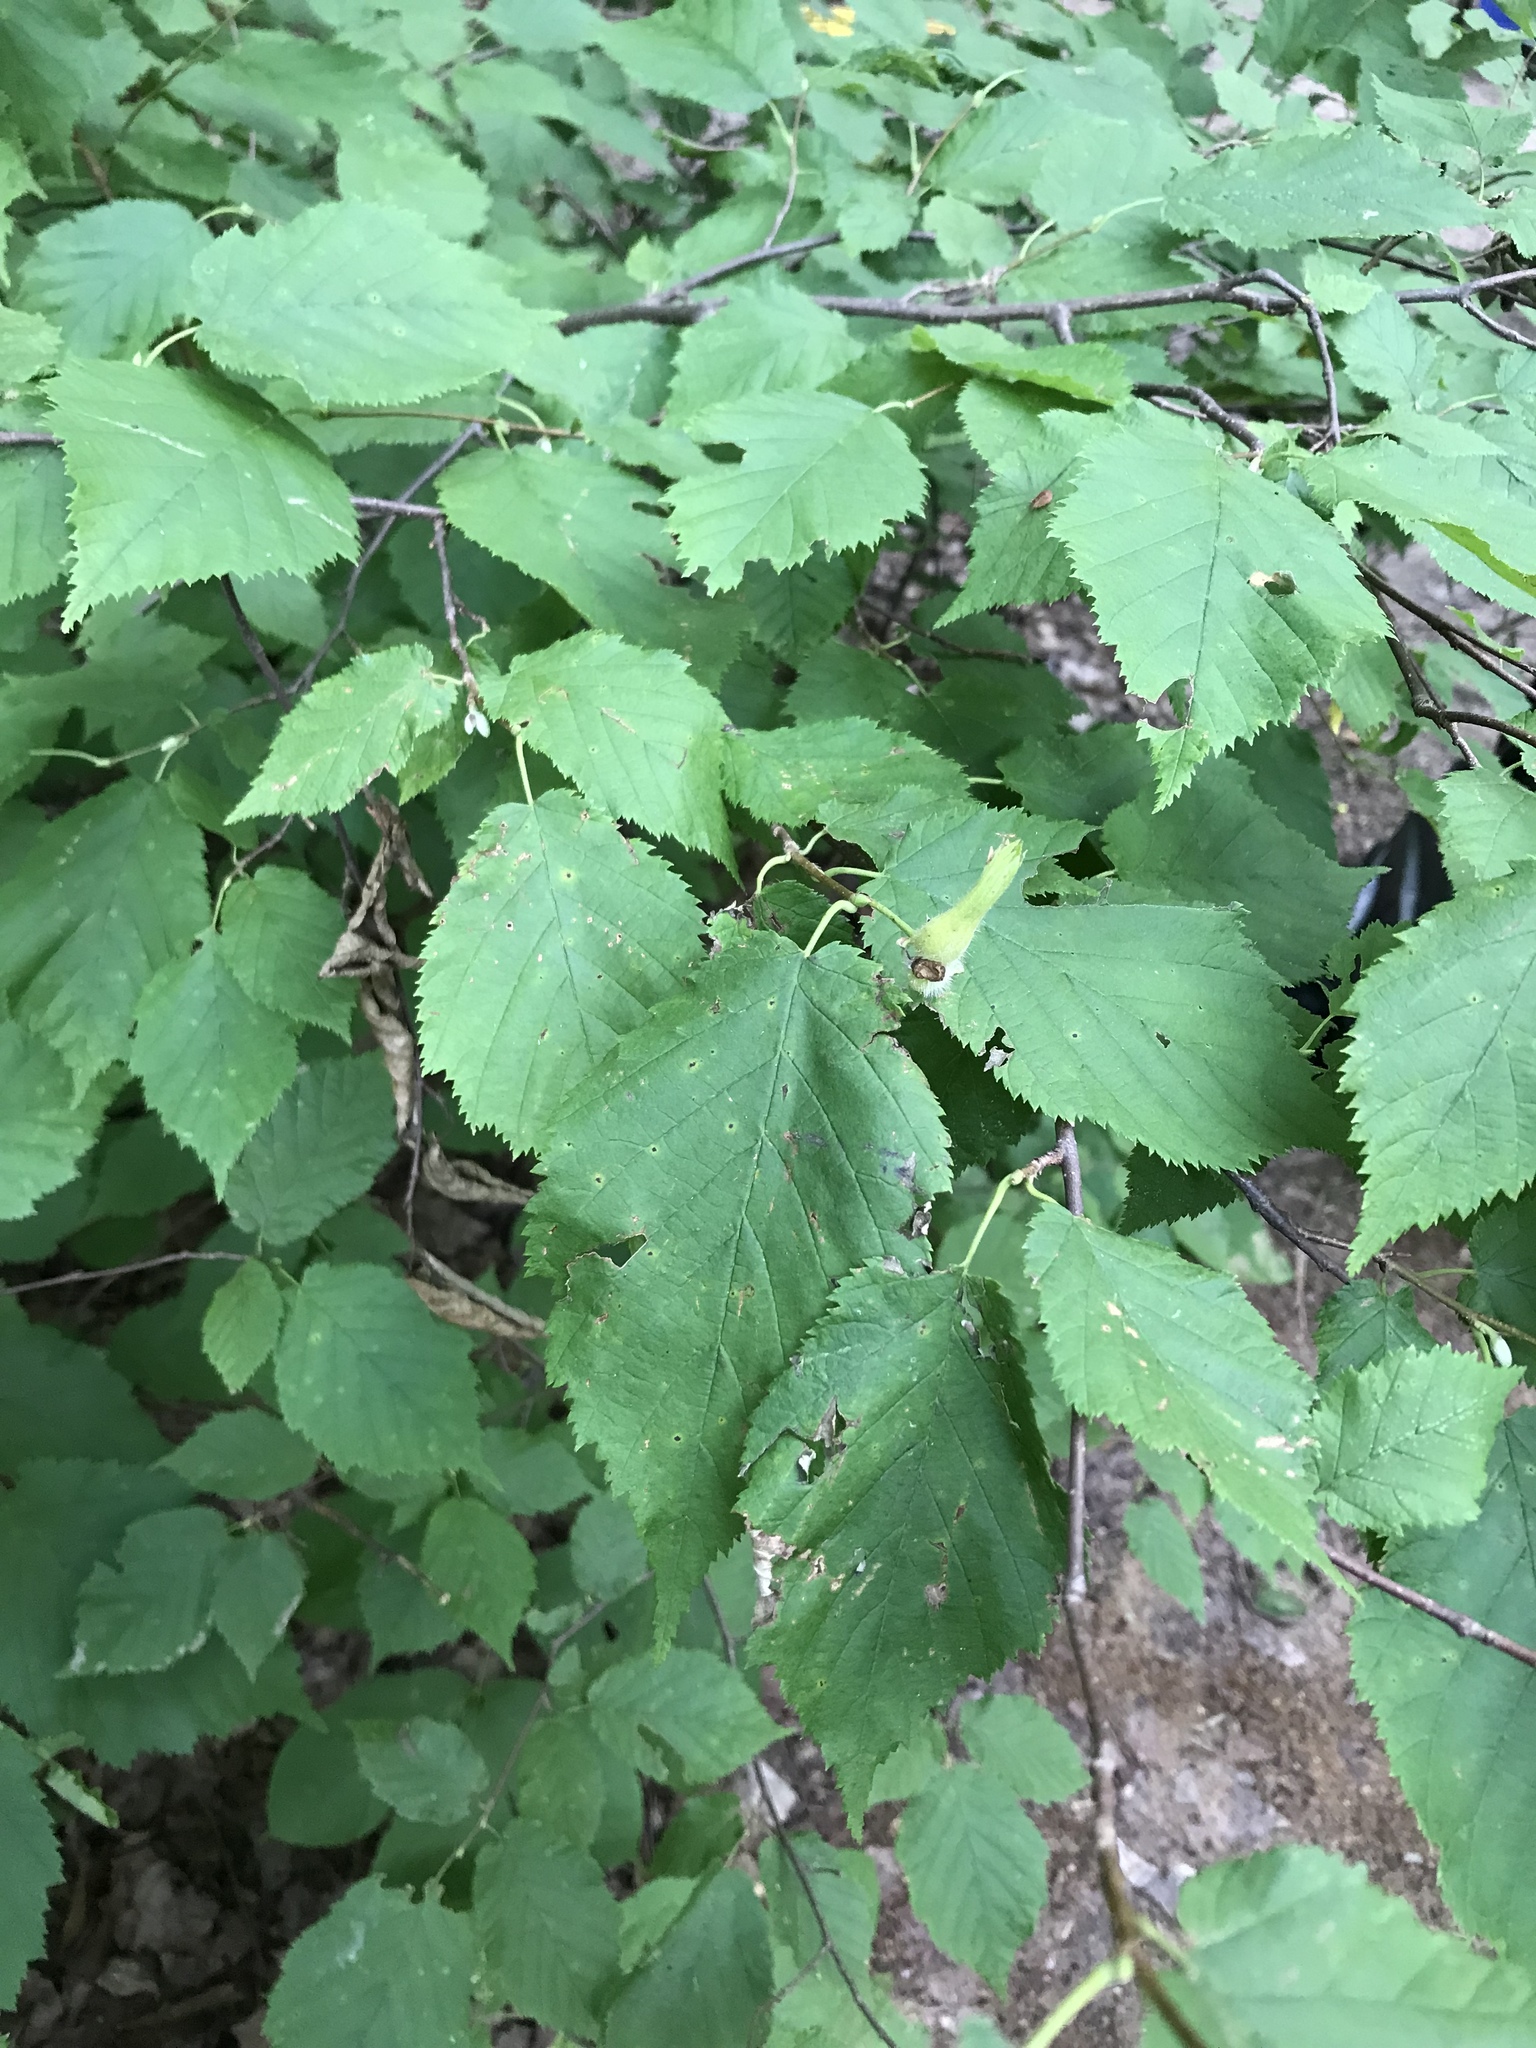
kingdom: Plantae
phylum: Tracheophyta
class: Magnoliopsida
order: Fagales
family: Betulaceae
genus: Corylus
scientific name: Corylus cornuta
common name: Beaked hazel
